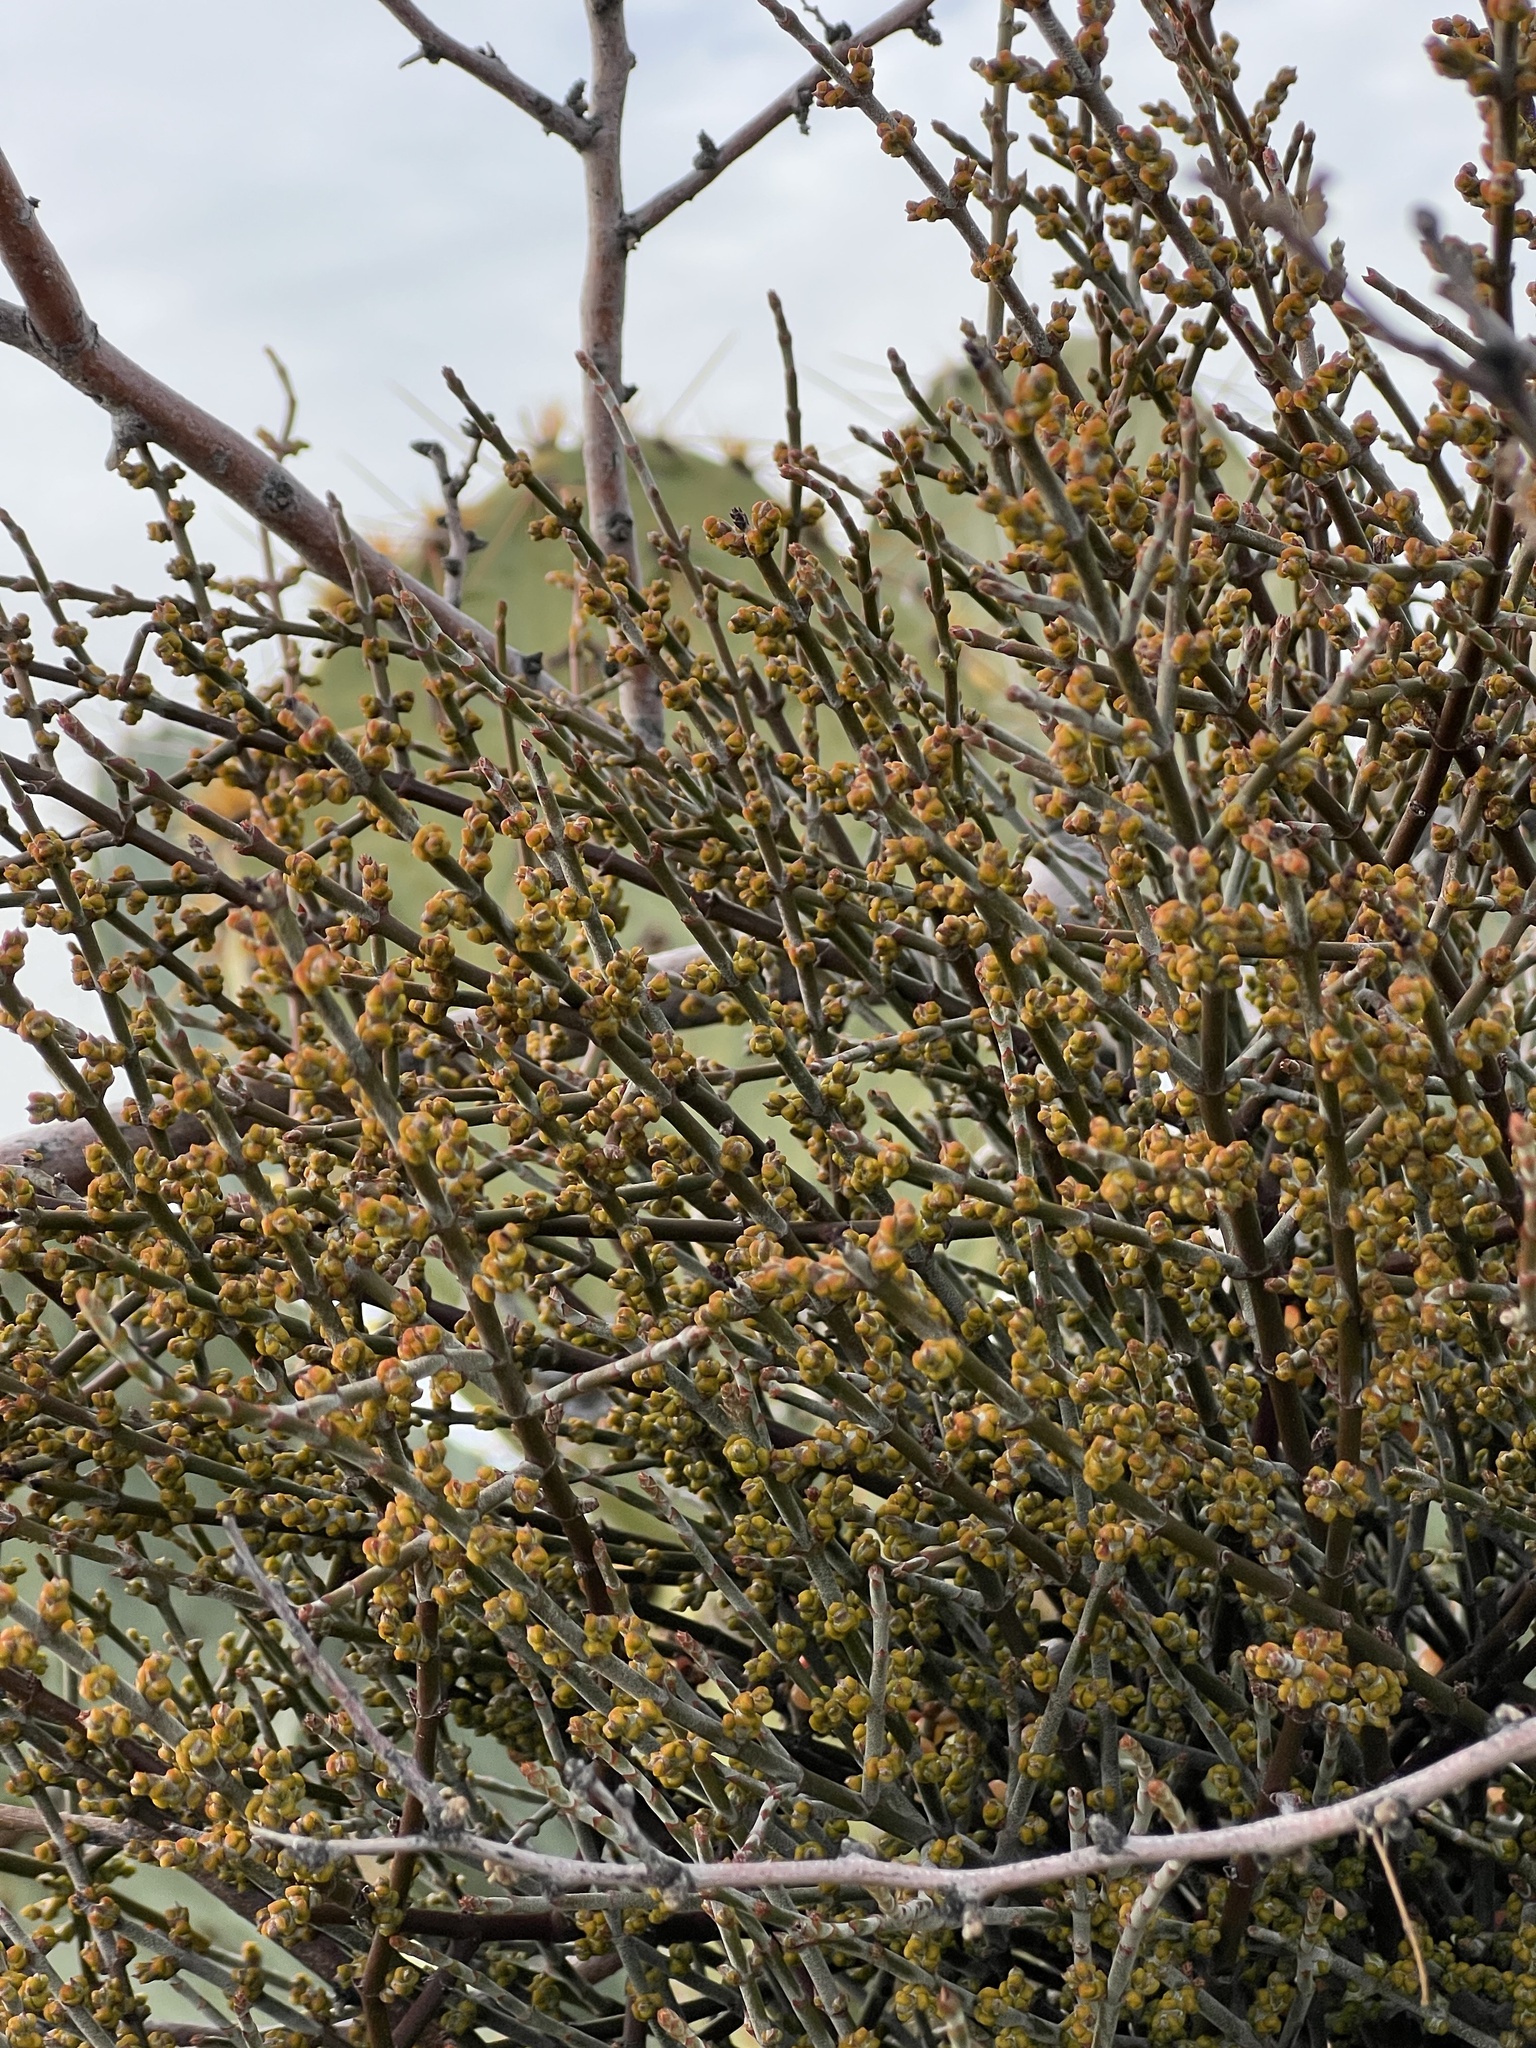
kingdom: Plantae
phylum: Tracheophyta
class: Magnoliopsida
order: Santalales
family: Viscaceae
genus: Phoradendron
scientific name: Phoradendron californicum
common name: Acacia mistletoe
